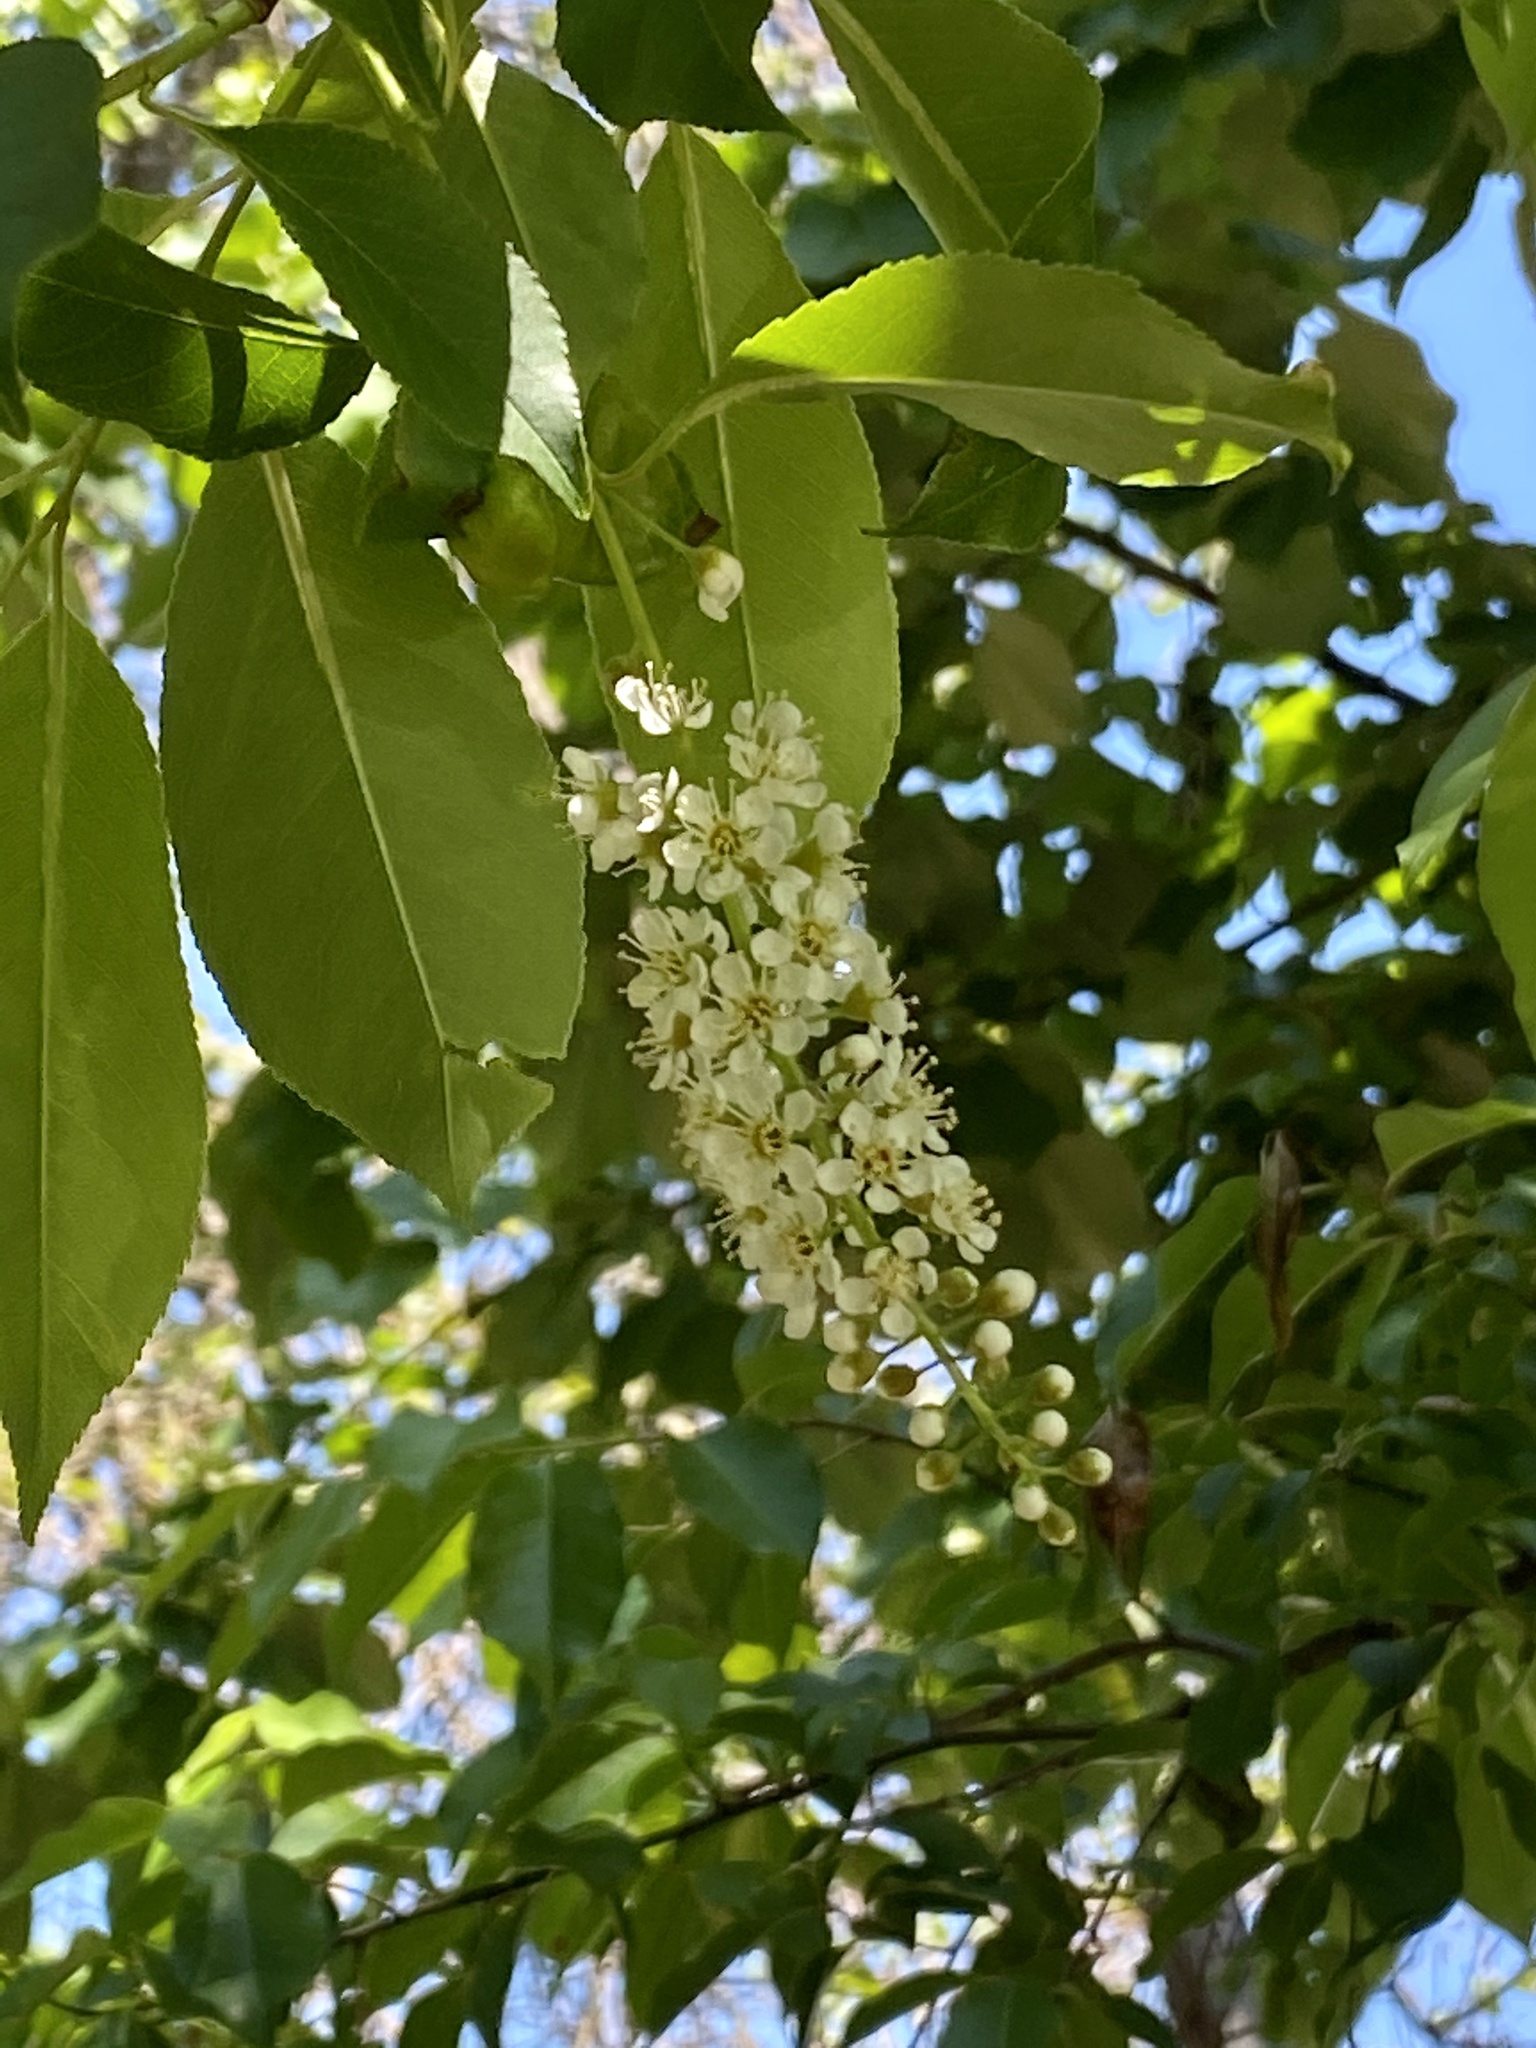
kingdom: Plantae
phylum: Tracheophyta
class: Magnoliopsida
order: Rosales
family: Rosaceae
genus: Prunus
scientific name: Prunus serotina
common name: Black cherry
